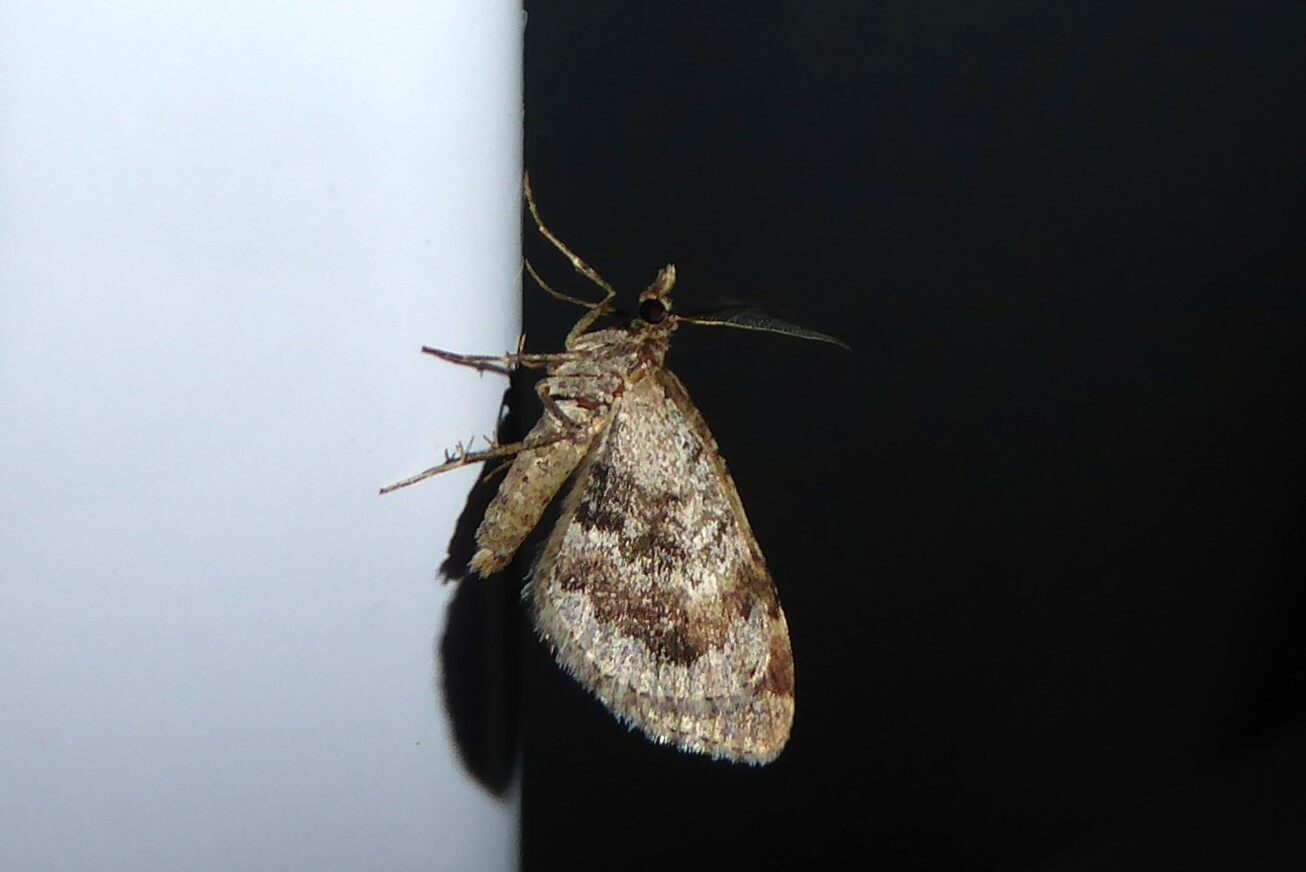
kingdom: Animalia
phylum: Arthropoda
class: Insecta
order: Lepidoptera
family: Geometridae
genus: Asaphodes
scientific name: Asaphodes aegrota
